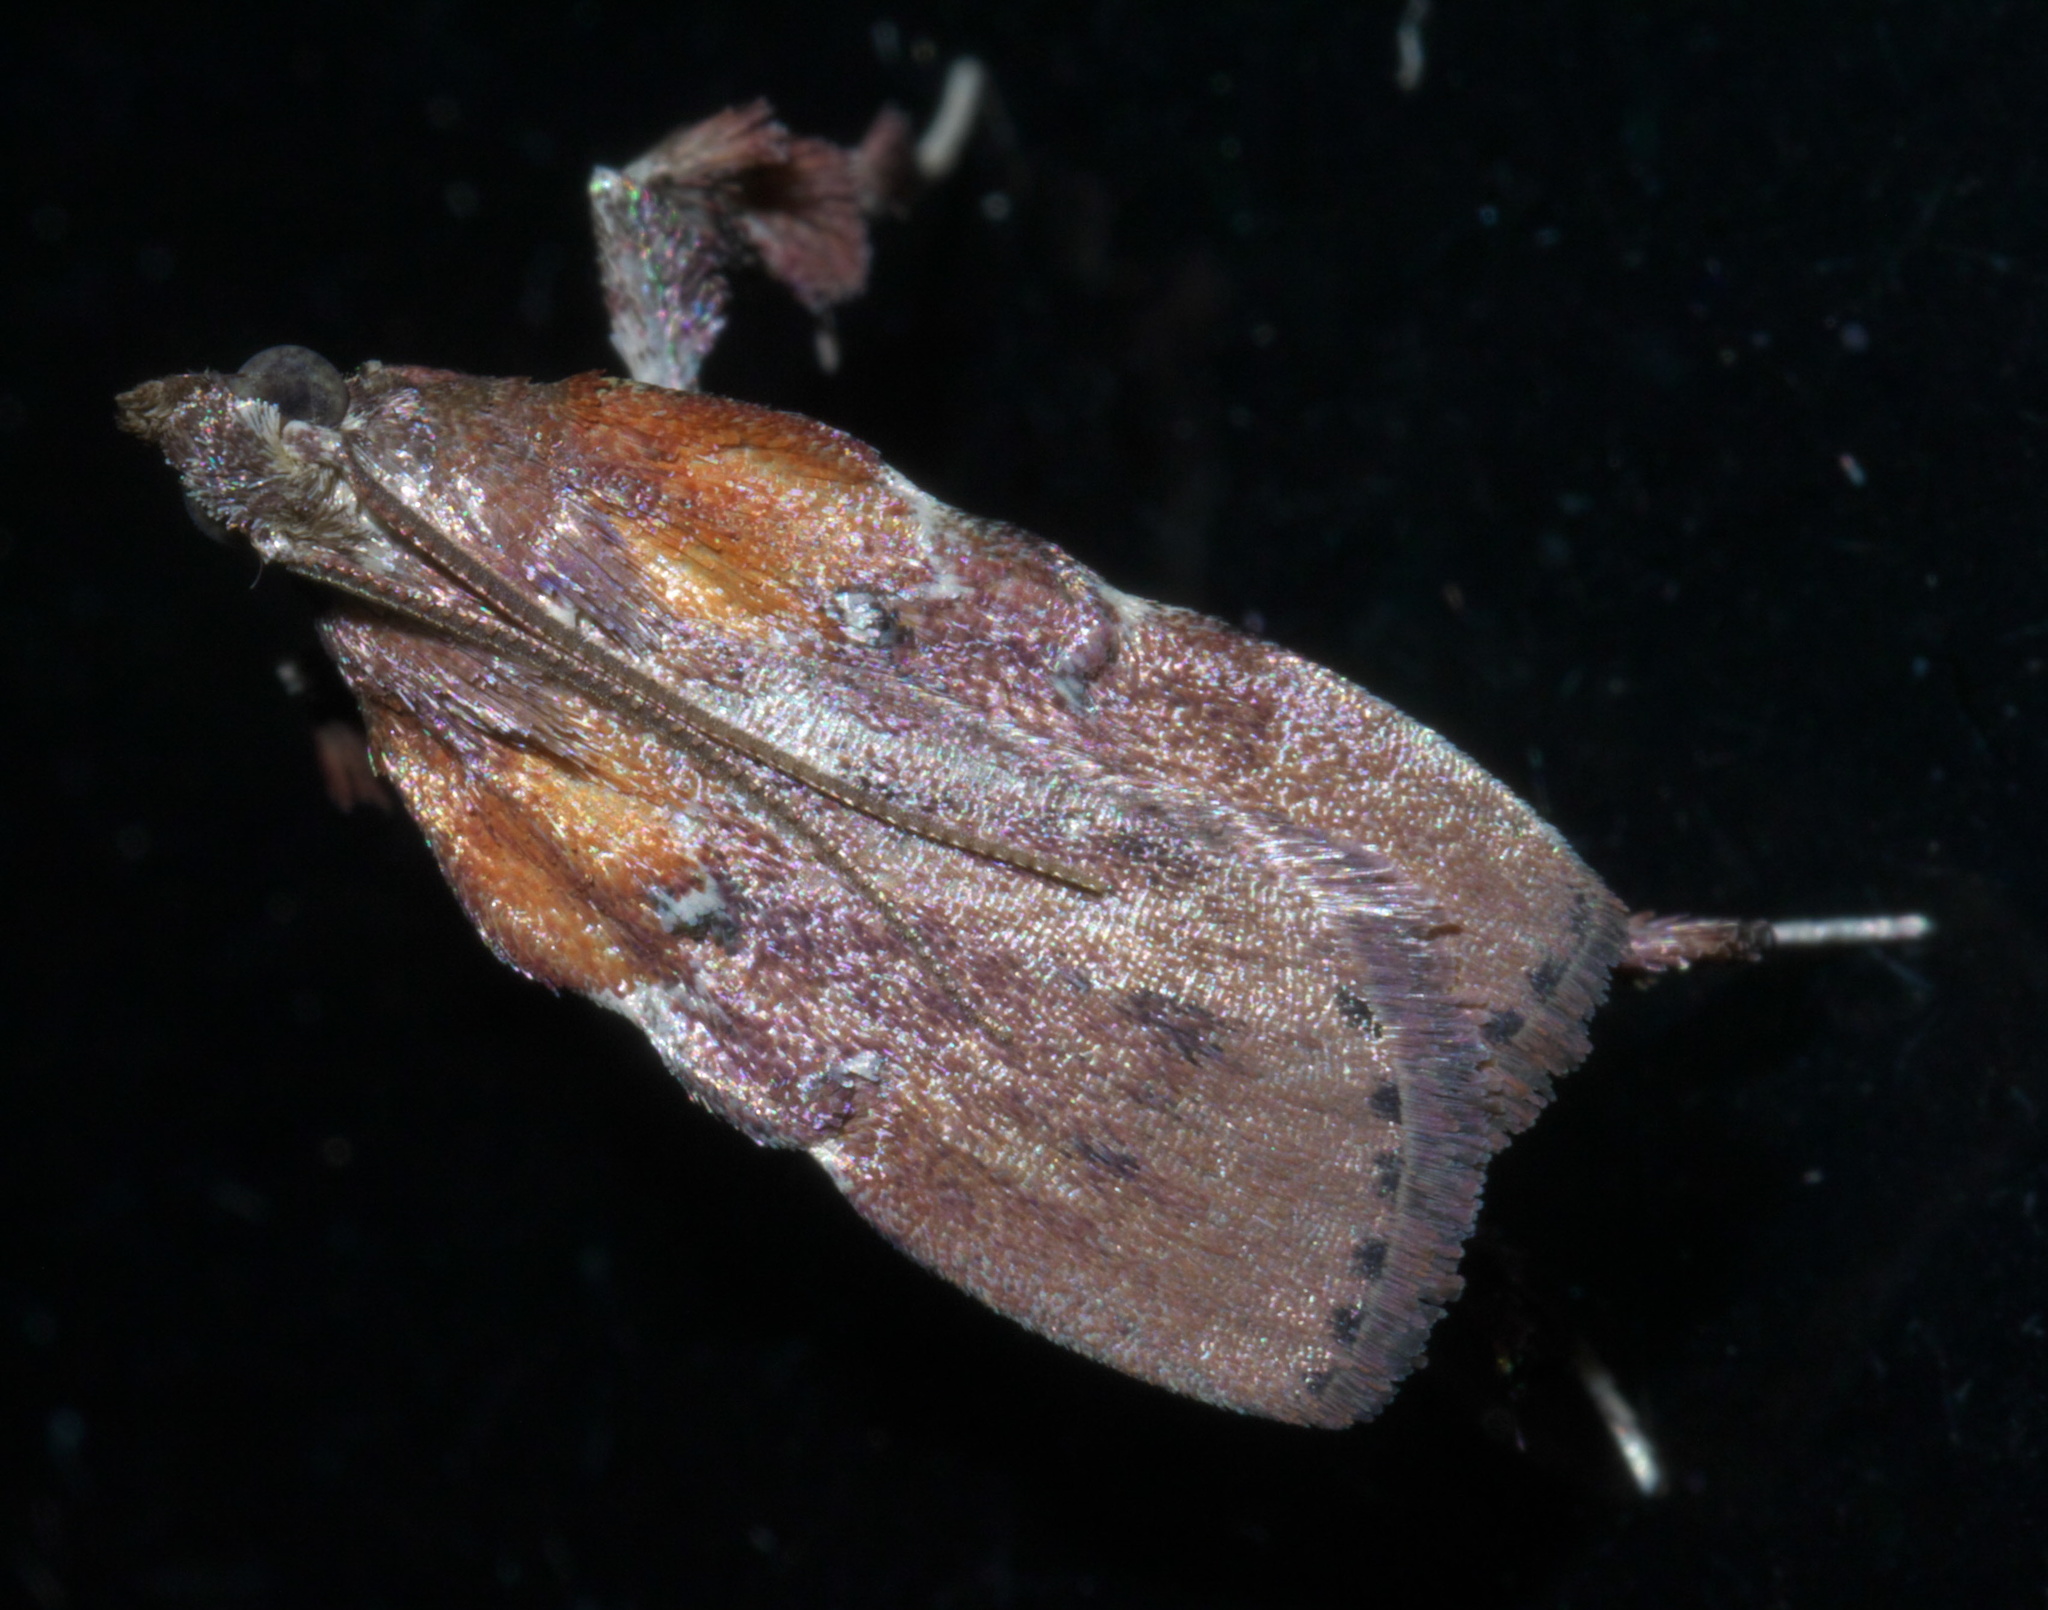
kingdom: Animalia
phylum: Arthropoda
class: Insecta
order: Lepidoptera
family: Pyralidae
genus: Galasa
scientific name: Galasa nigrinodis
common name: Boxwood leaftier moth
